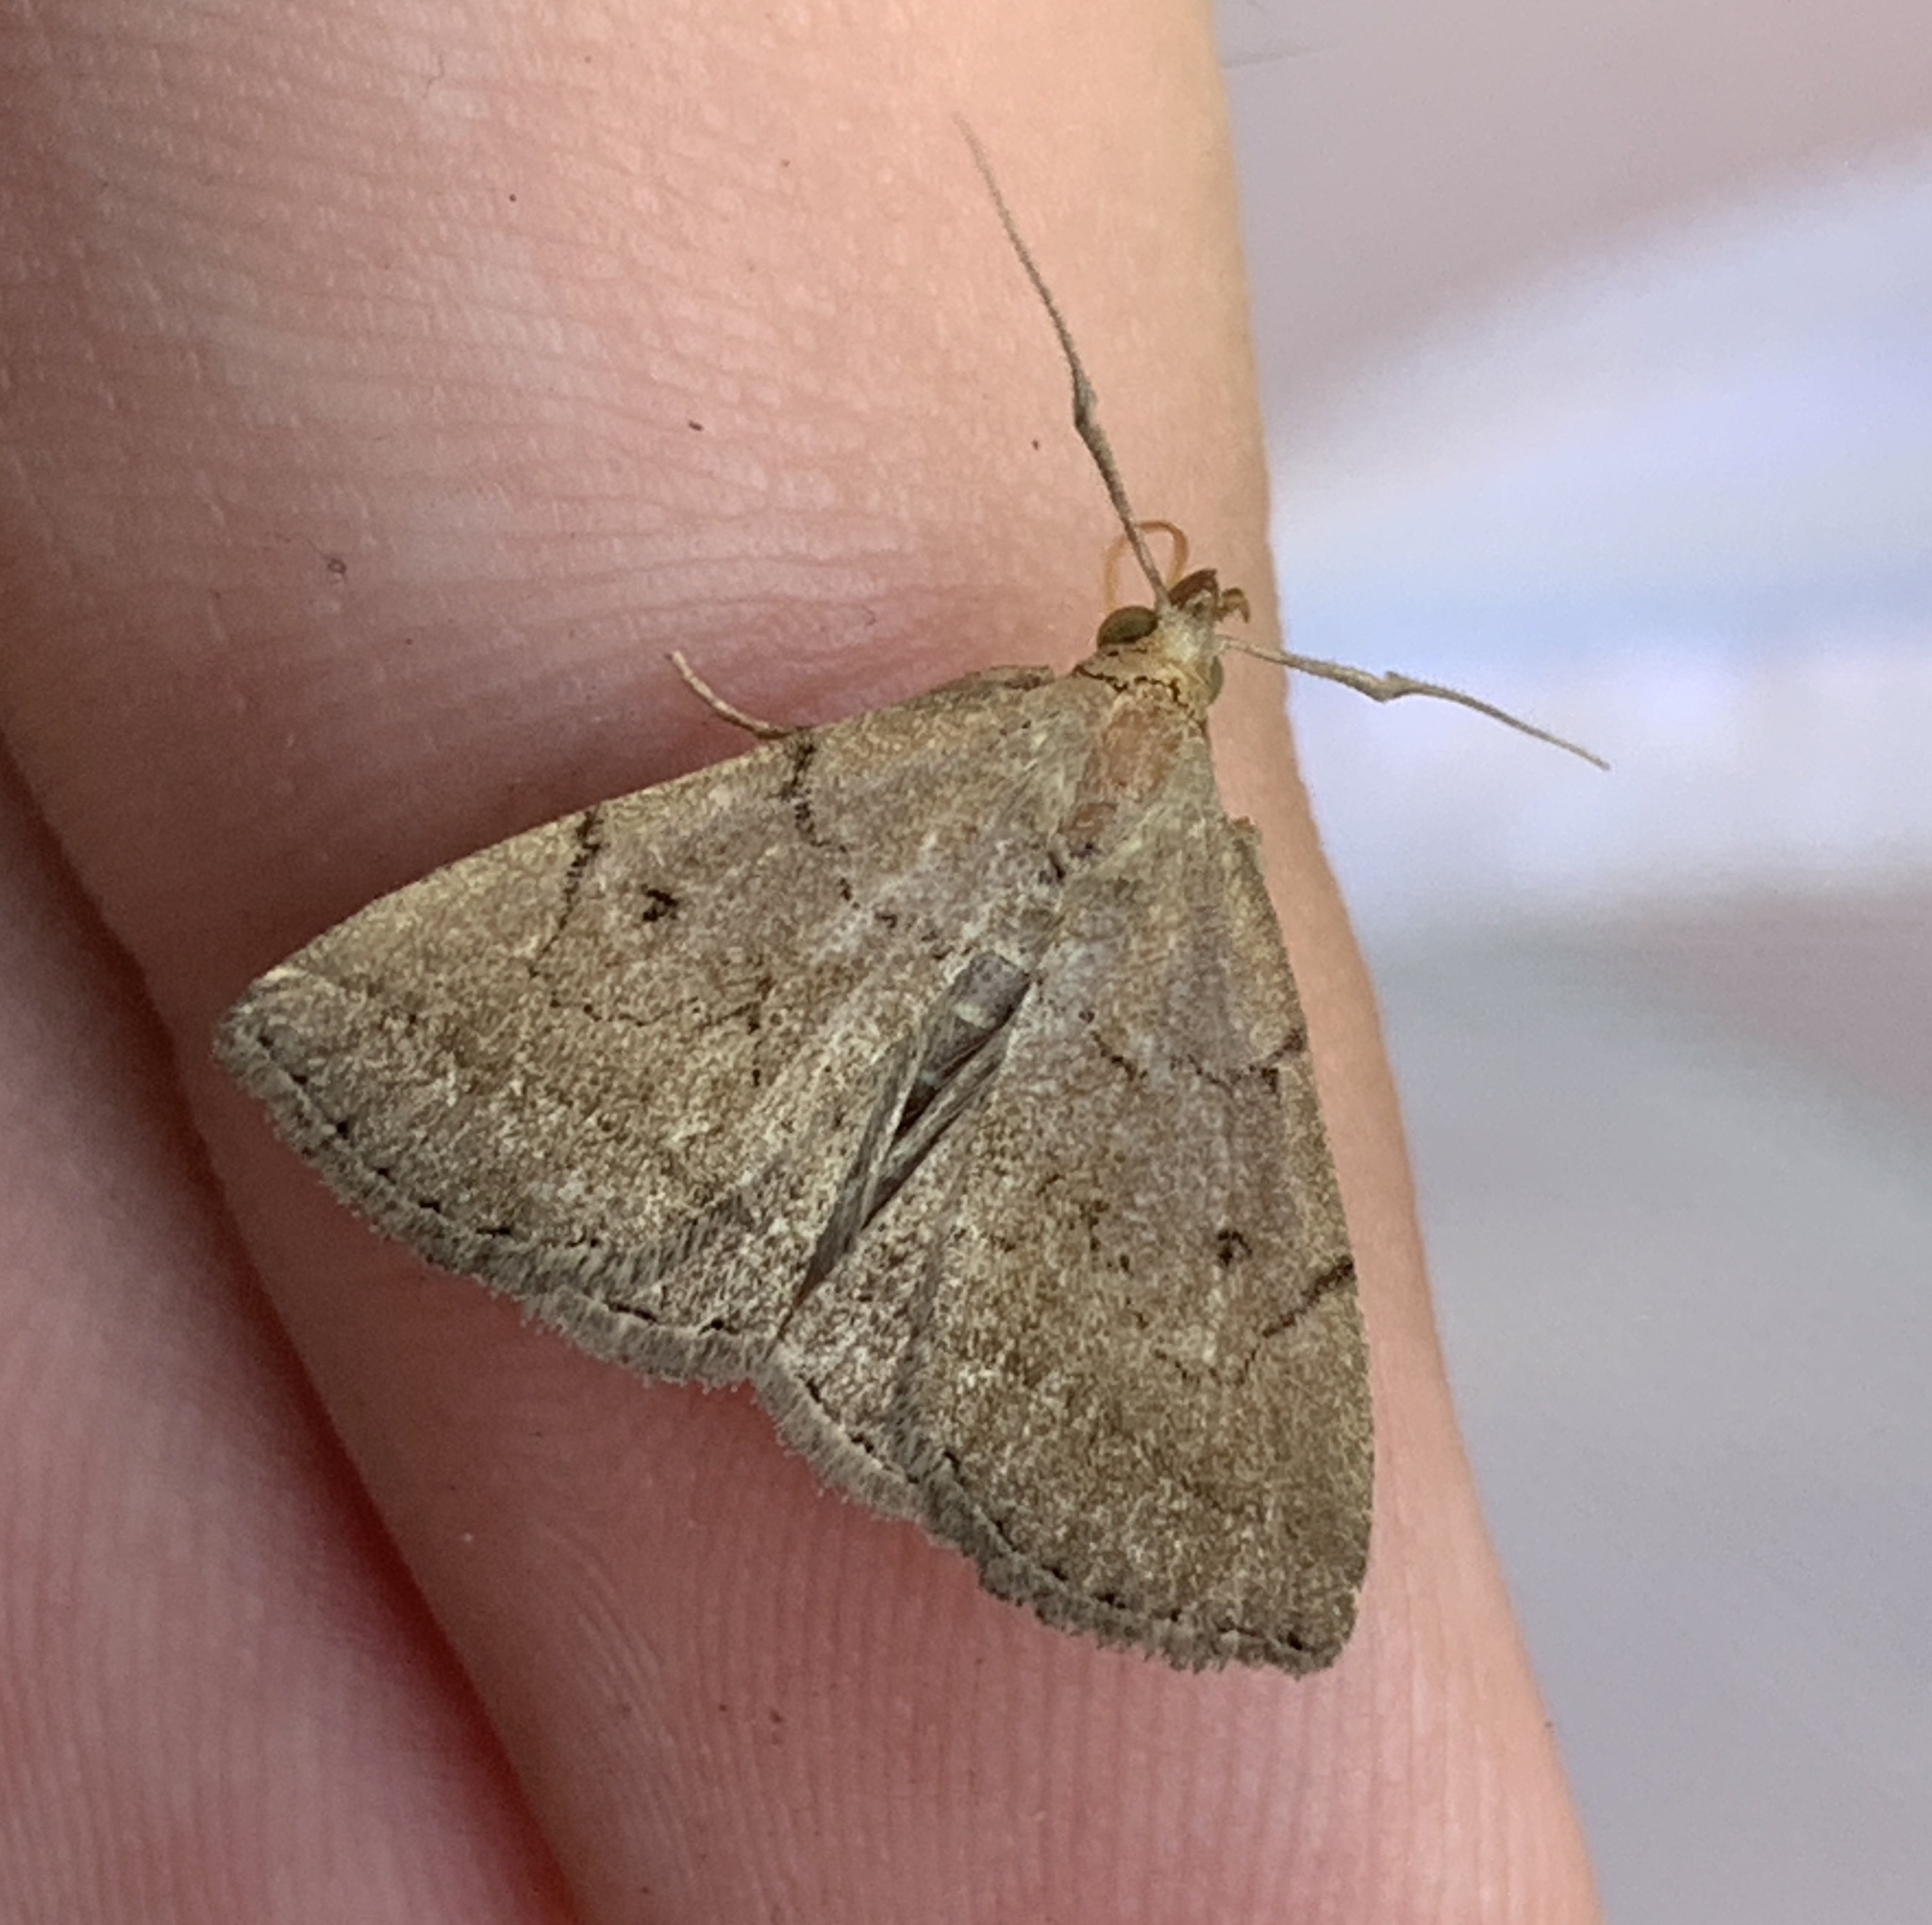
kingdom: Animalia
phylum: Arthropoda
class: Insecta
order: Lepidoptera
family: Erebidae
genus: Zanclognatha
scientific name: Zanclognatha protumnusalis
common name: Complex fan-foot
